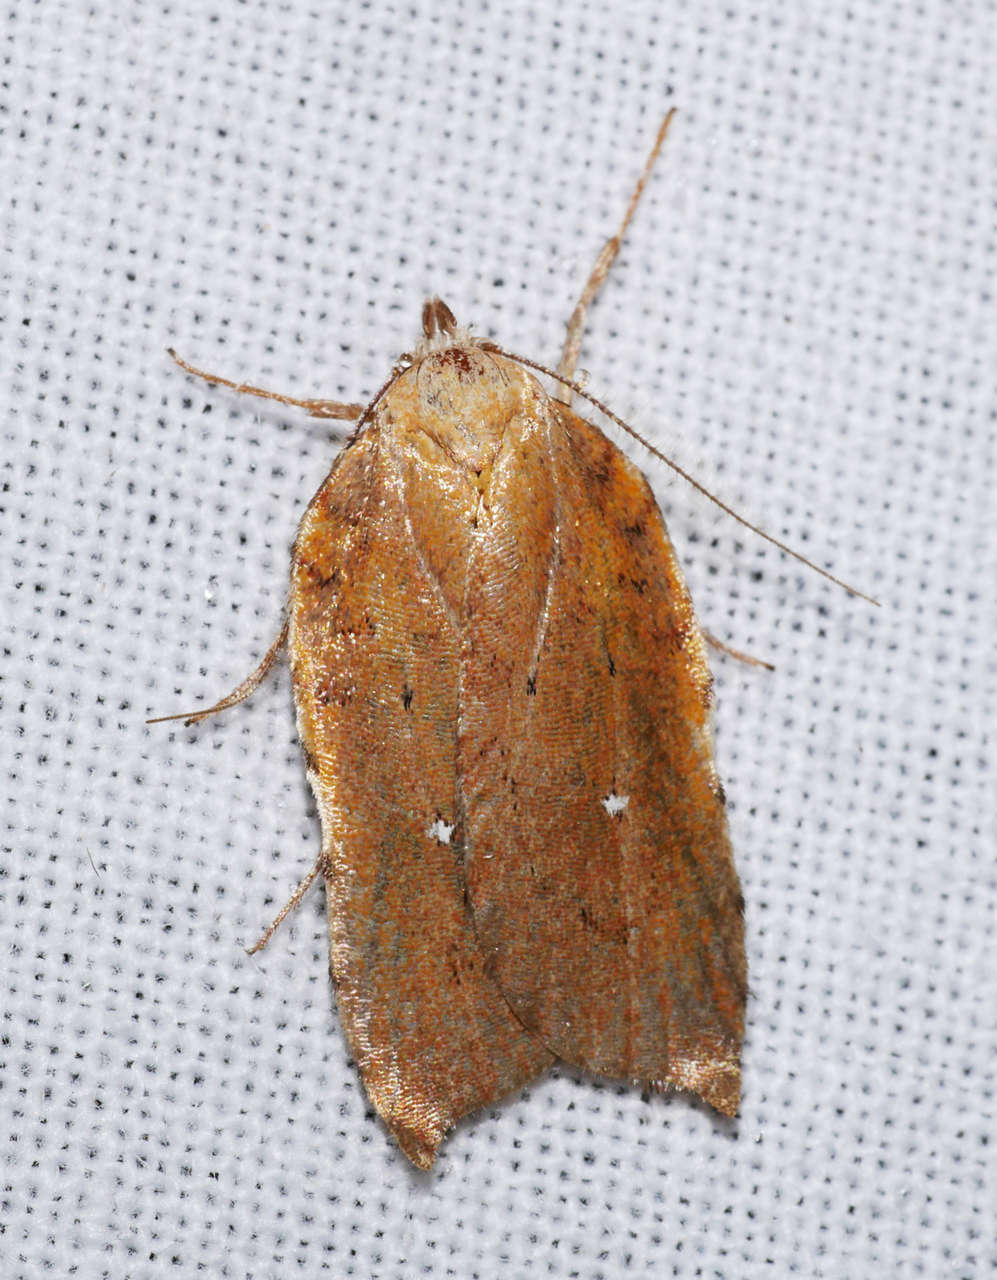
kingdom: Animalia
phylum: Arthropoda
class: Insecta
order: Lepidoptera
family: Oecophoridae
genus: Arachnographa
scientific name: Arachnographa micrastrella
